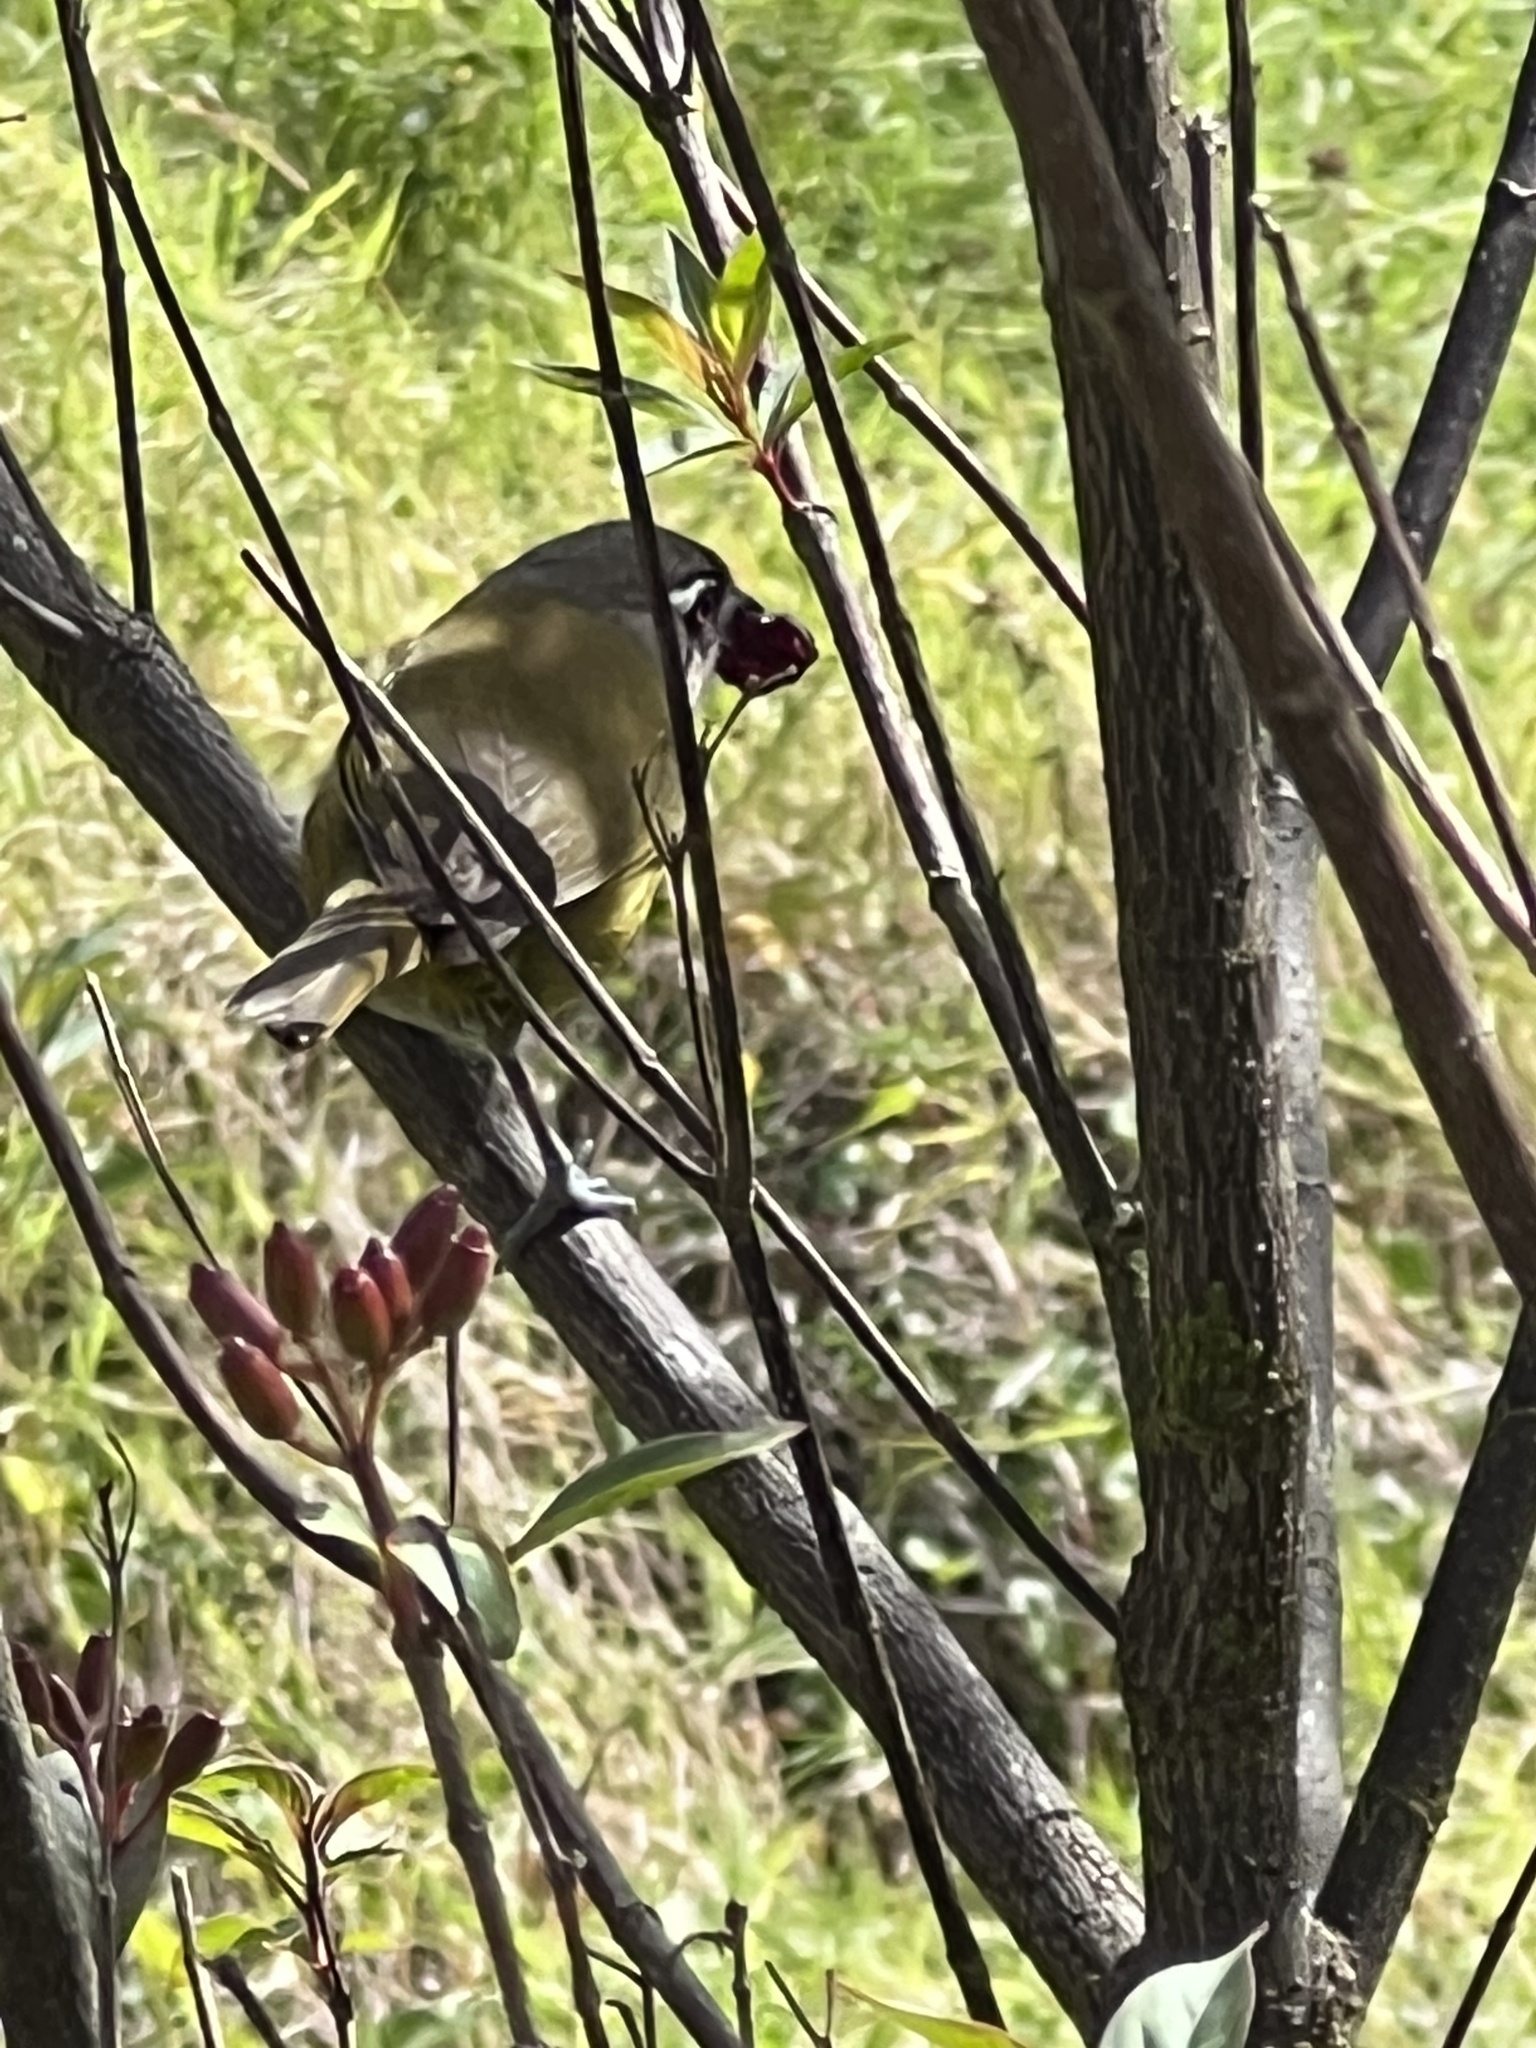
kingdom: Animalia
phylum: Chordata
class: Aves
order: Passeriformes
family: Passerellidae
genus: Chlorospingus
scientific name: Chlorospingus flavopectus
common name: Common chlorospingus
